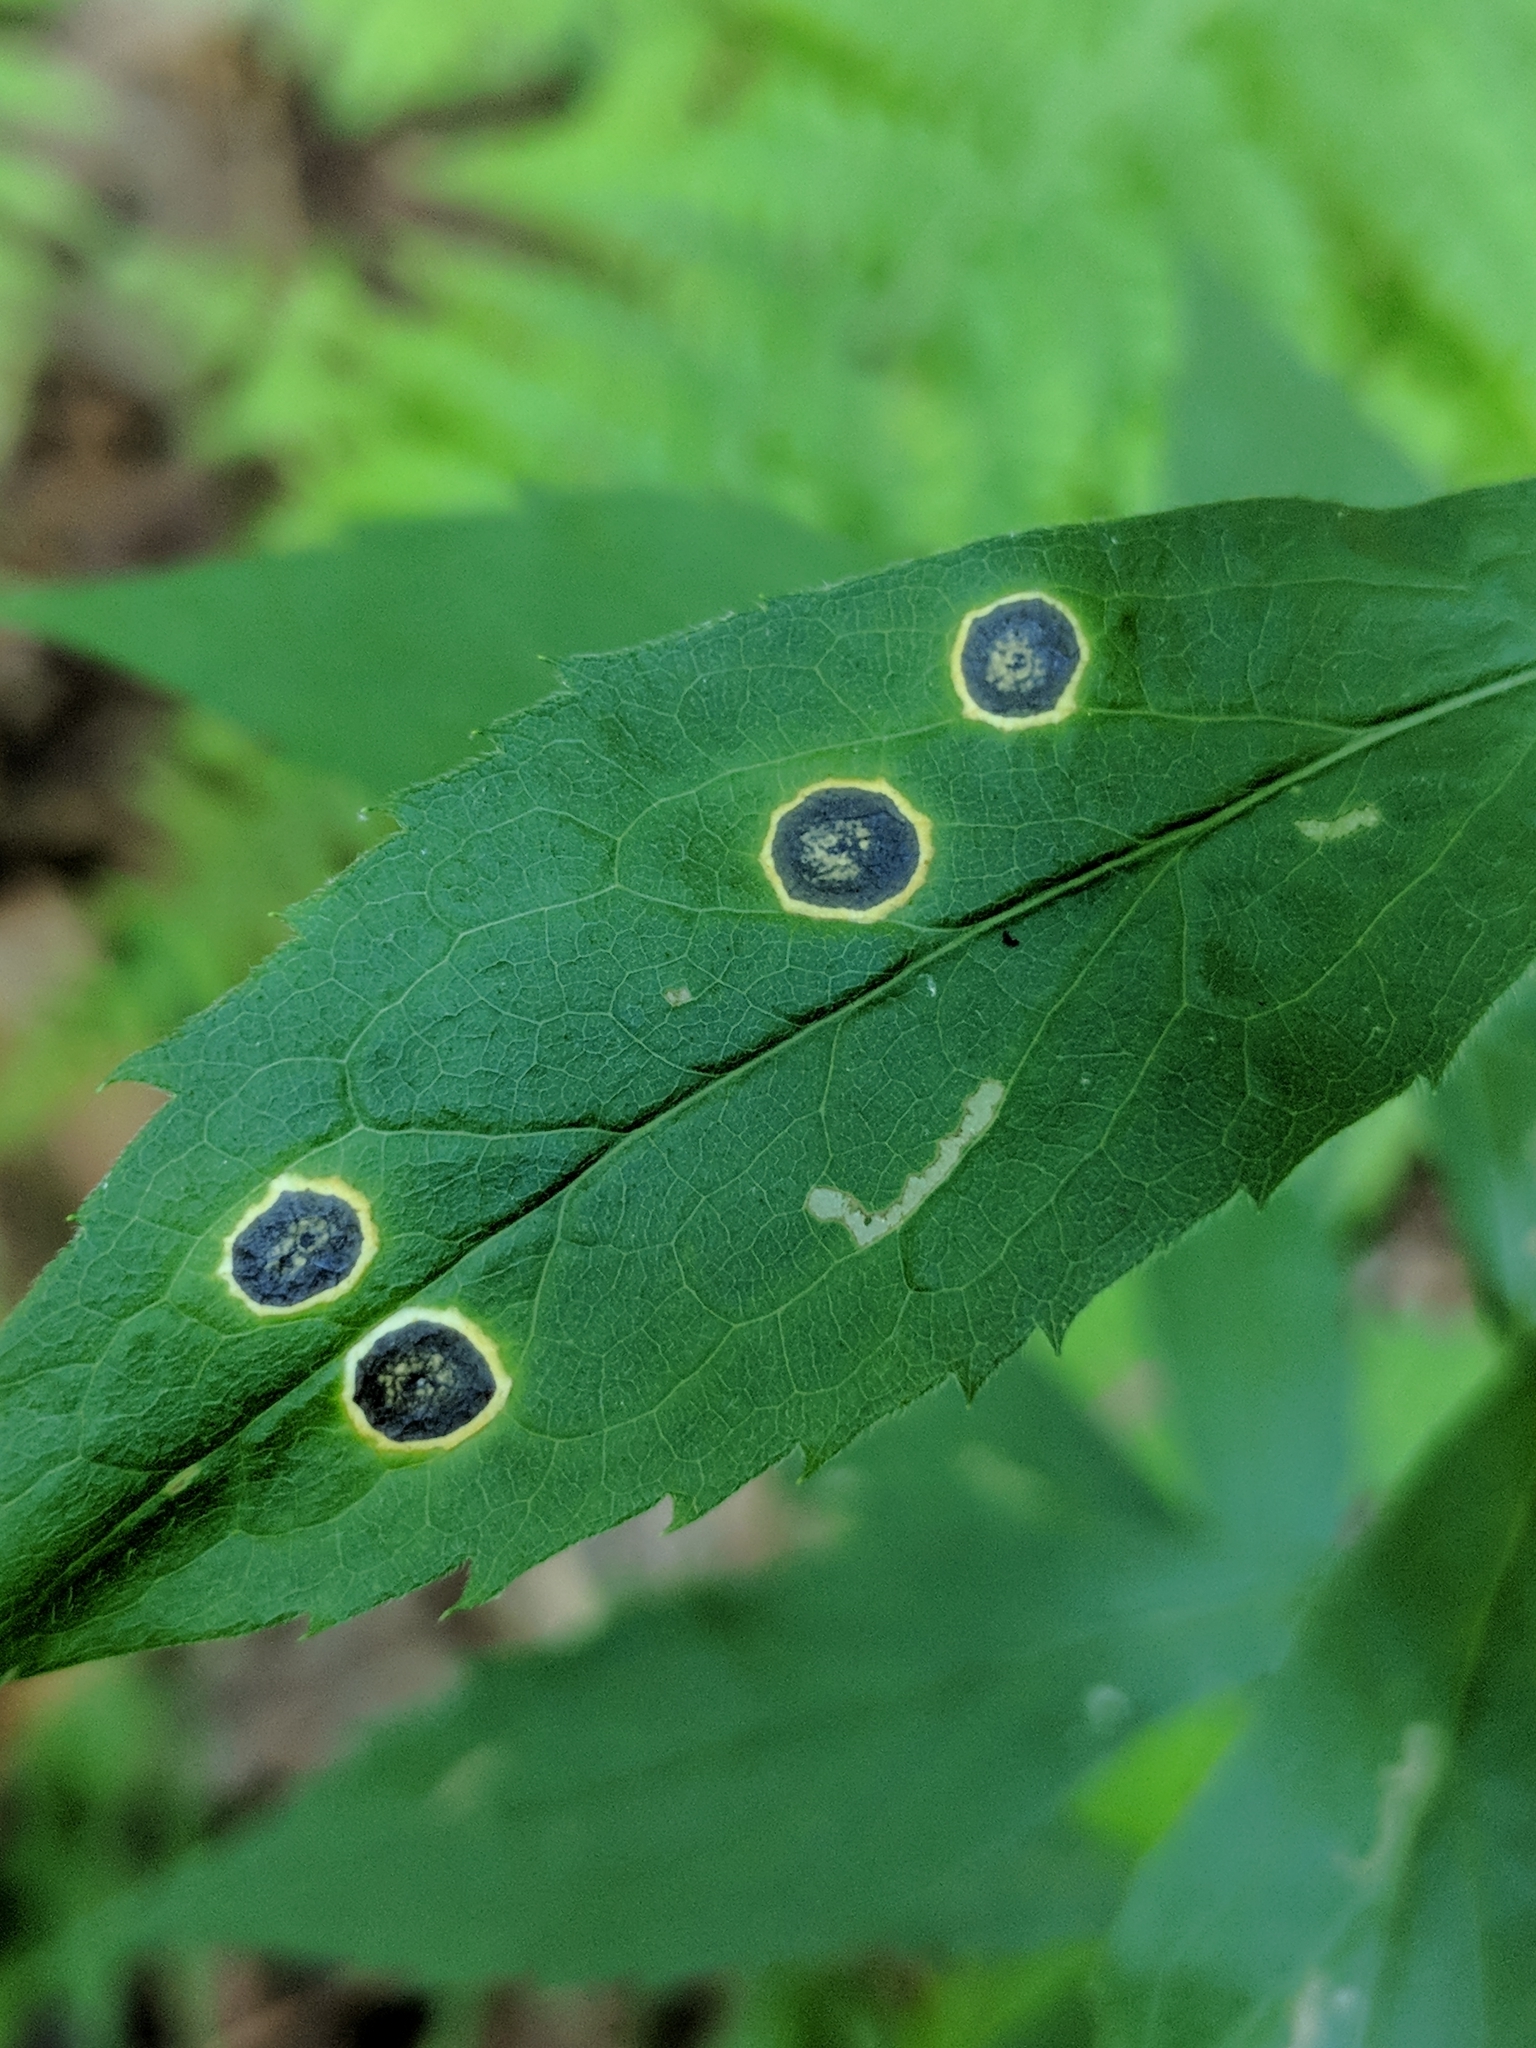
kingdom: Animalia
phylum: Arthropoda
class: Insecta
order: Diptera
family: Cecidomyiidae
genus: Asteromyia
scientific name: Asteromyia carbonifera
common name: Carbonifera goldenrod gall midge
